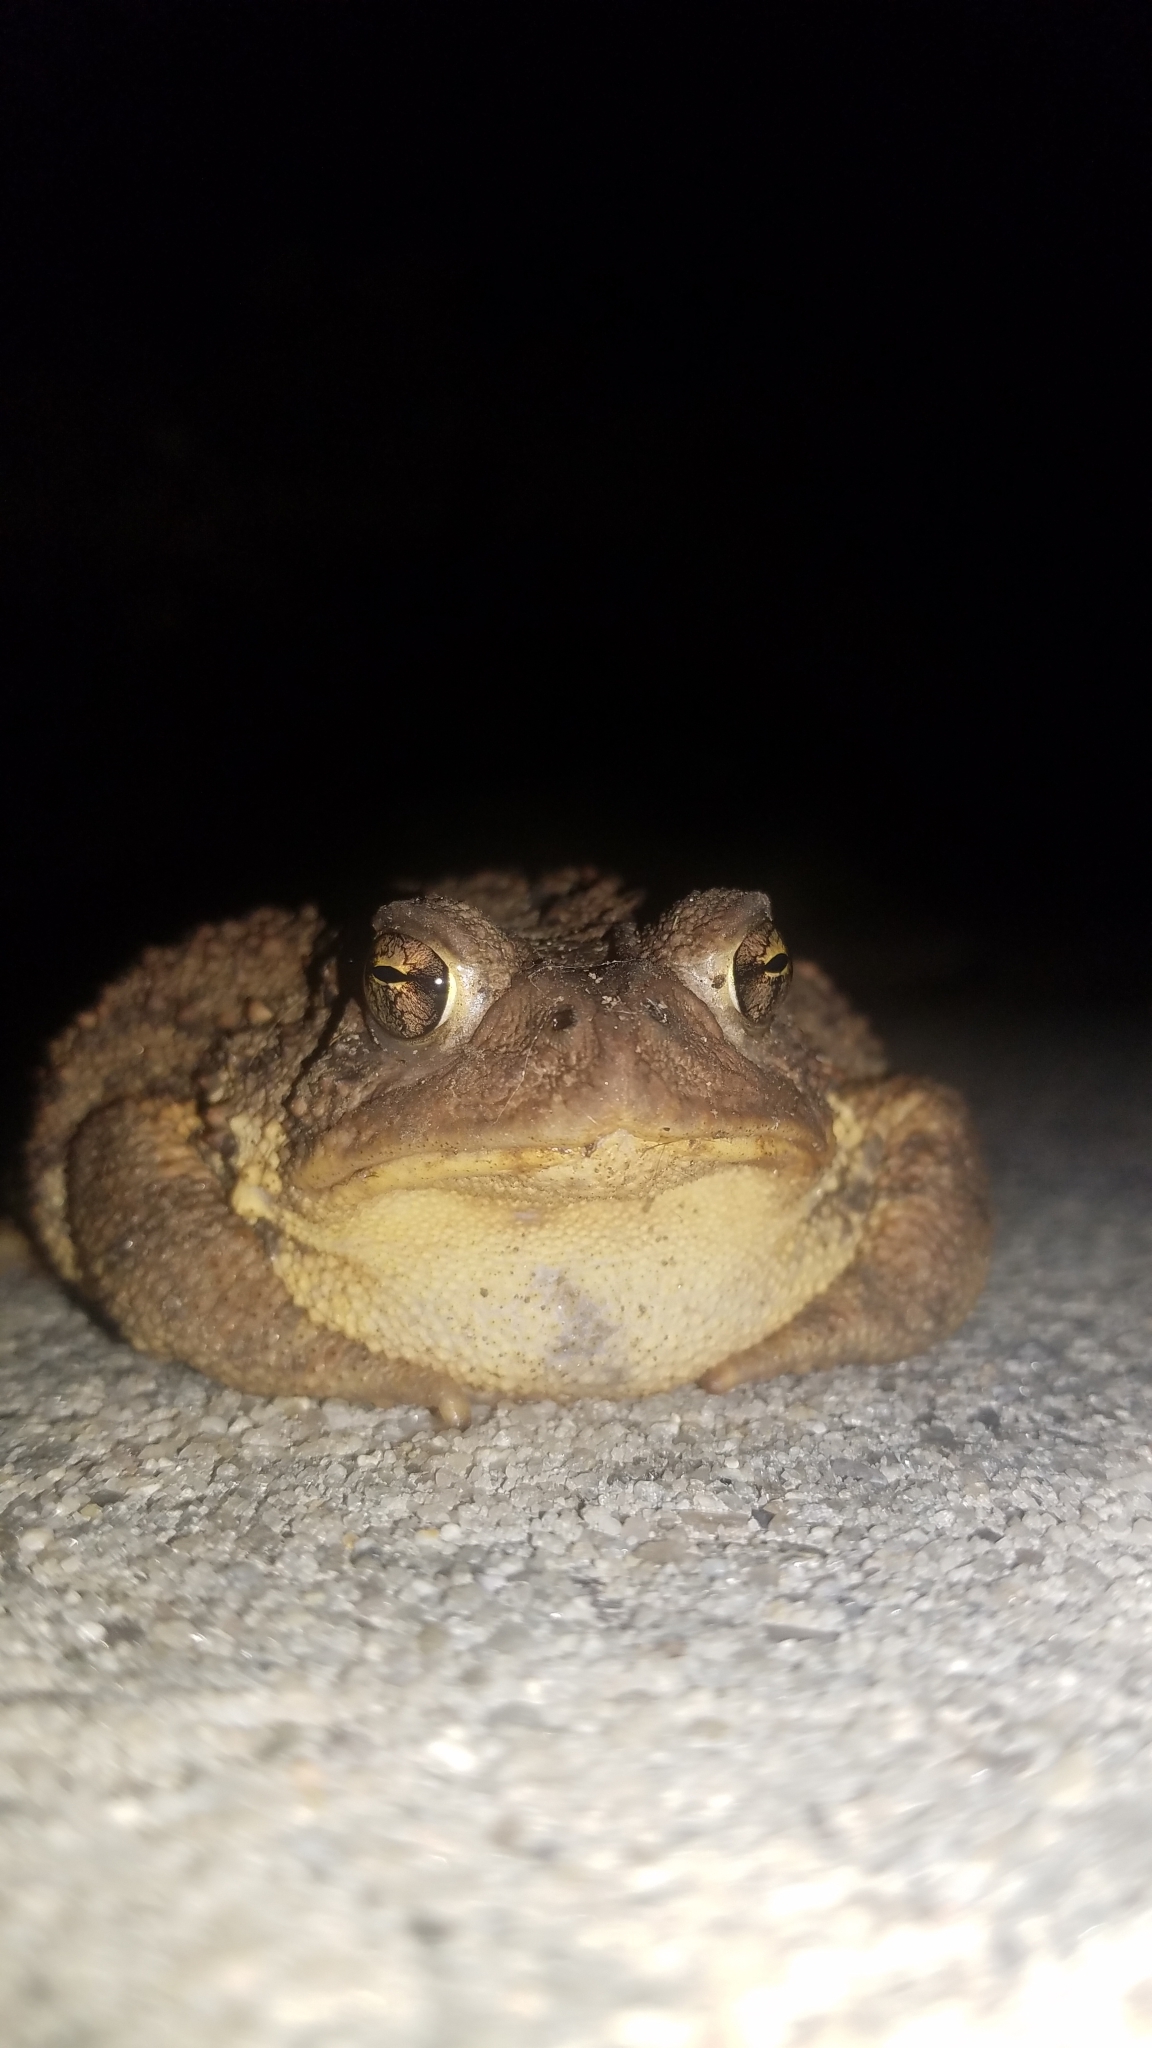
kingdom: Animalia
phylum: Chordata
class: Amphibia
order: Anura
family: Bufonidae
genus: Anaxyrus
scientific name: Anaxyrus americanus
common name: American toad
